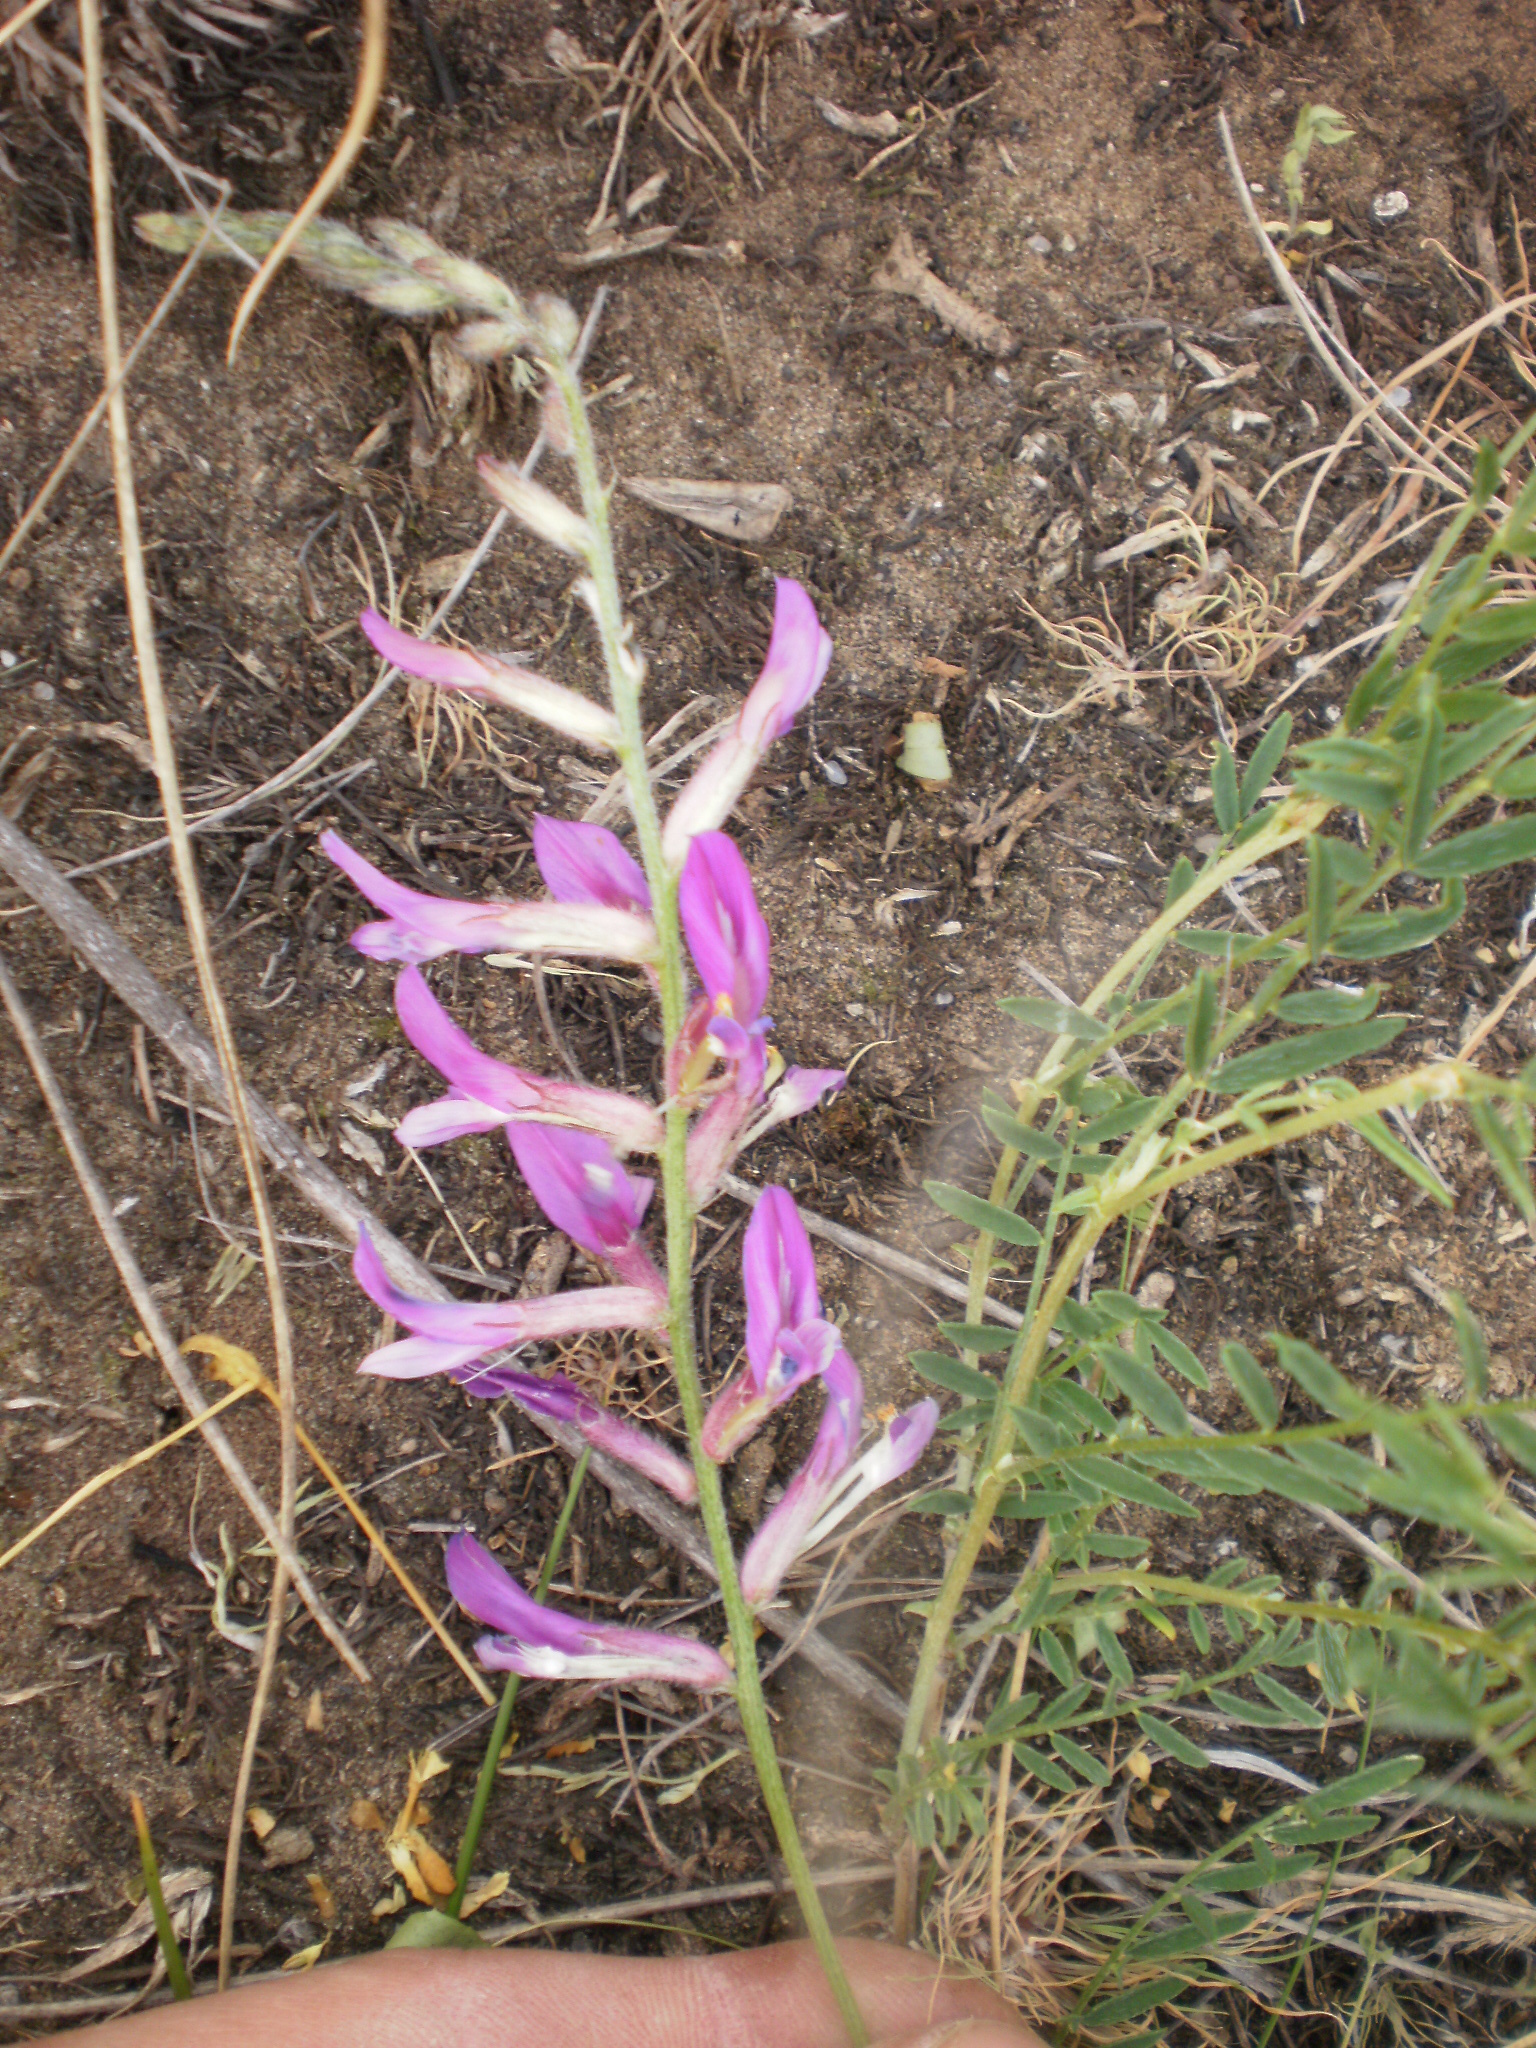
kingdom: Plantae
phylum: Tracheophyta
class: Magnoliopsida
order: Fabales
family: Fabaceae
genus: Astragalus
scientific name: Astragalus varius
